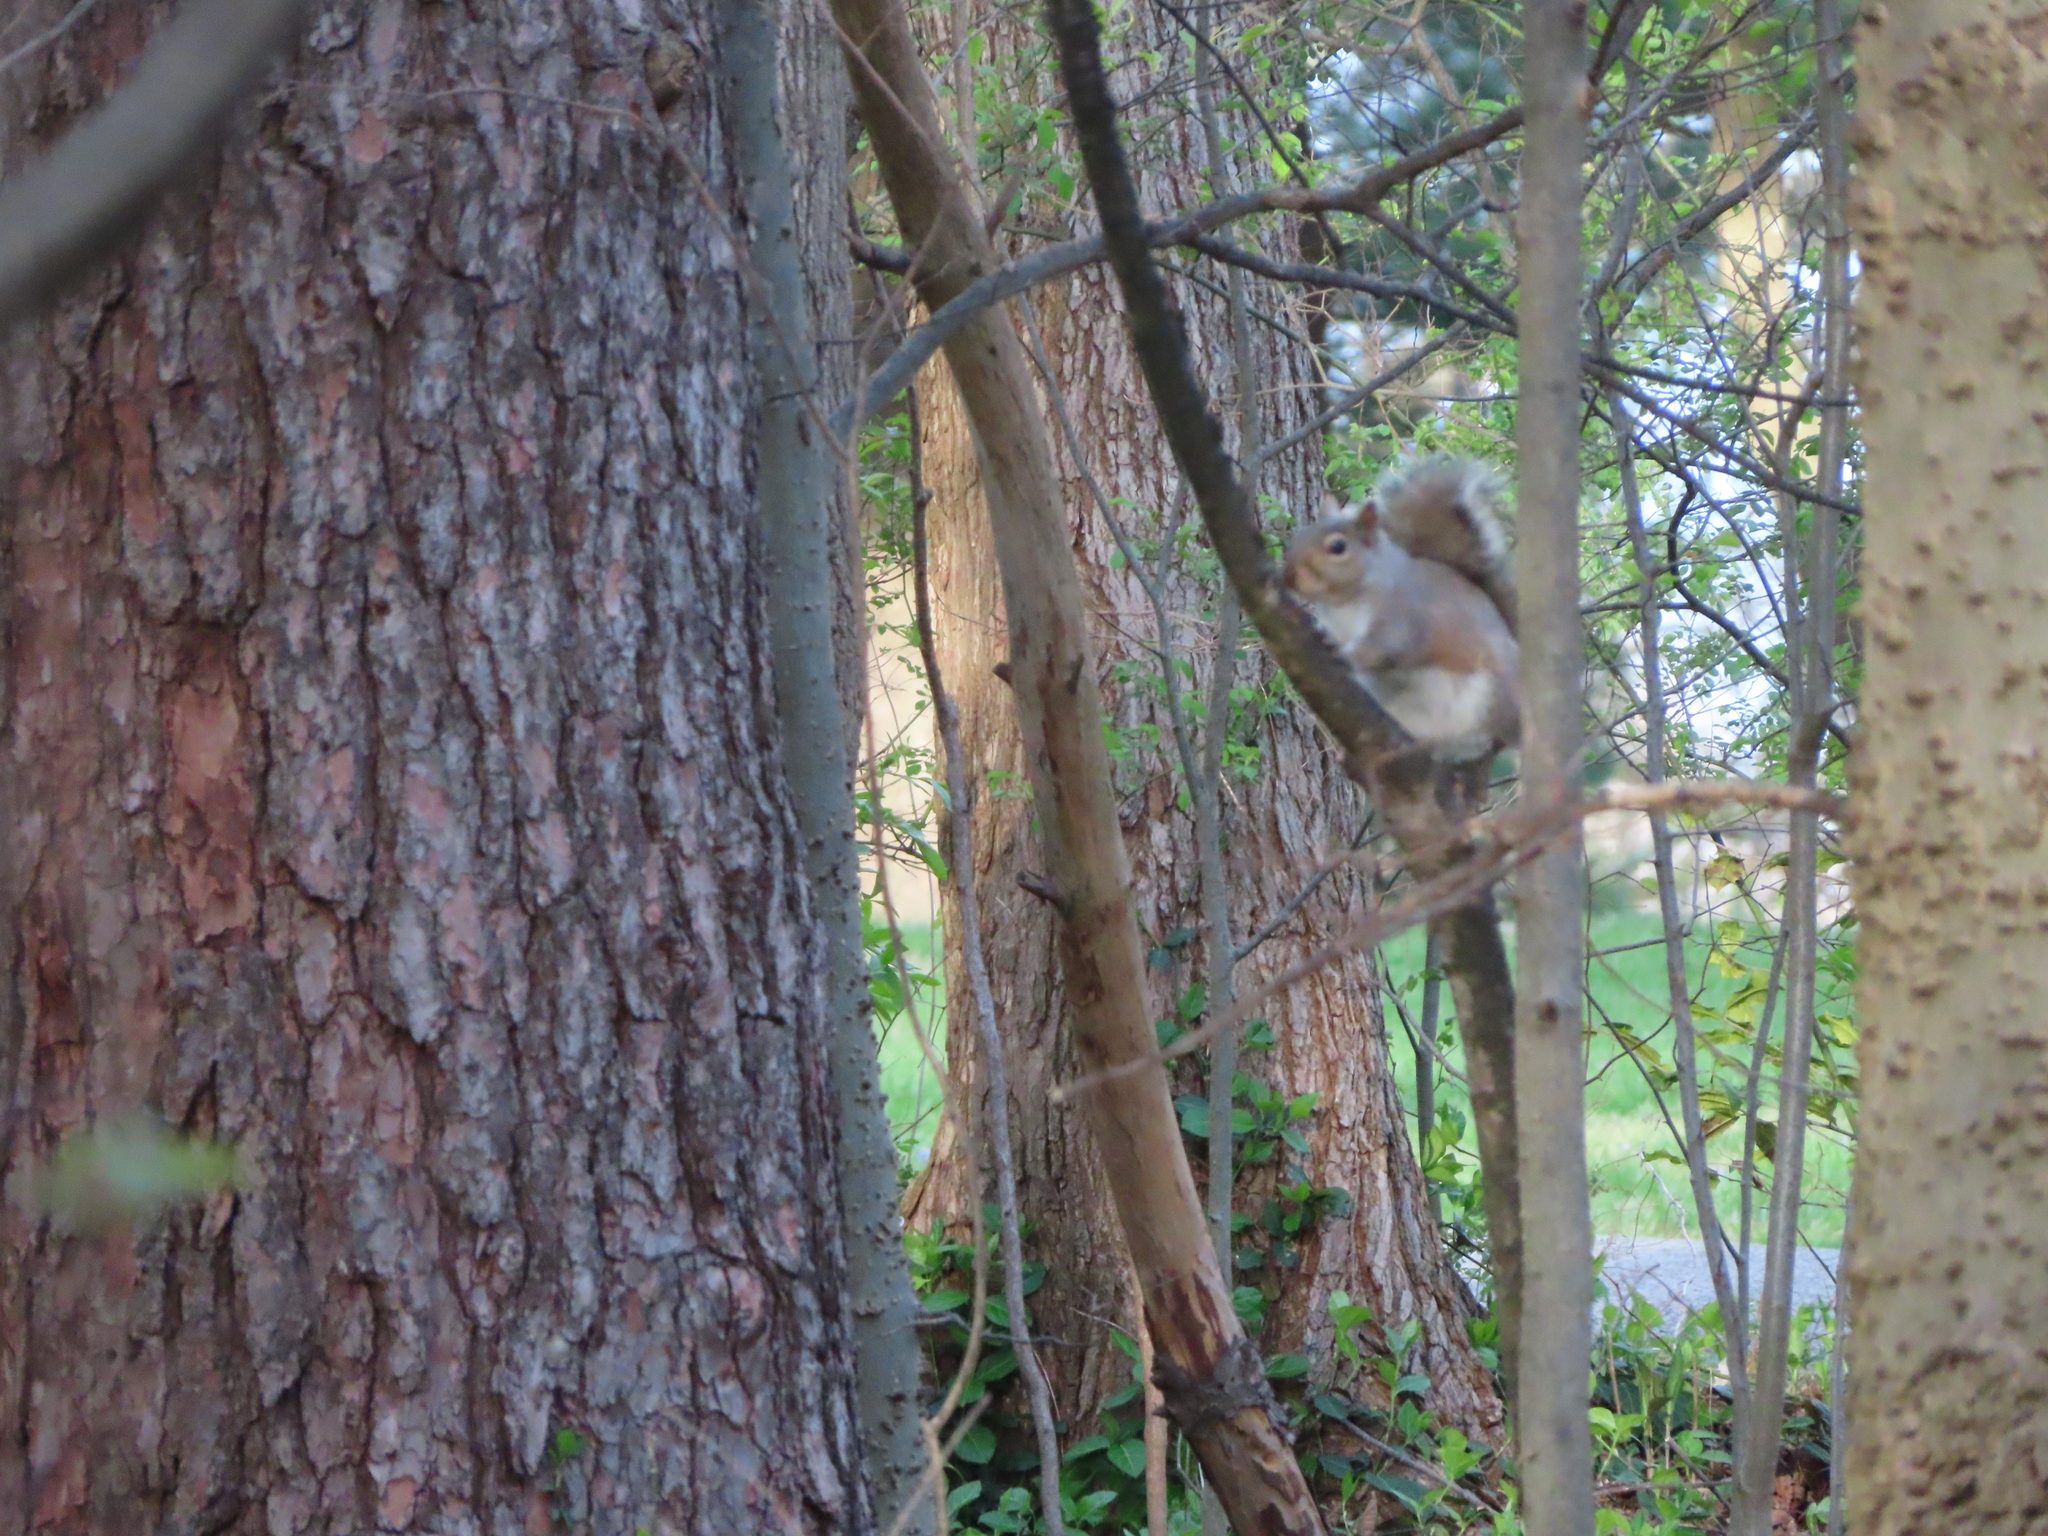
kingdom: Animalia
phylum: Chordata
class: Mammalia
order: Rodentia
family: Sciuridae
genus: Sciurus
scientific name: Sciurus carolinensis
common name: Eastern gray squirrel
